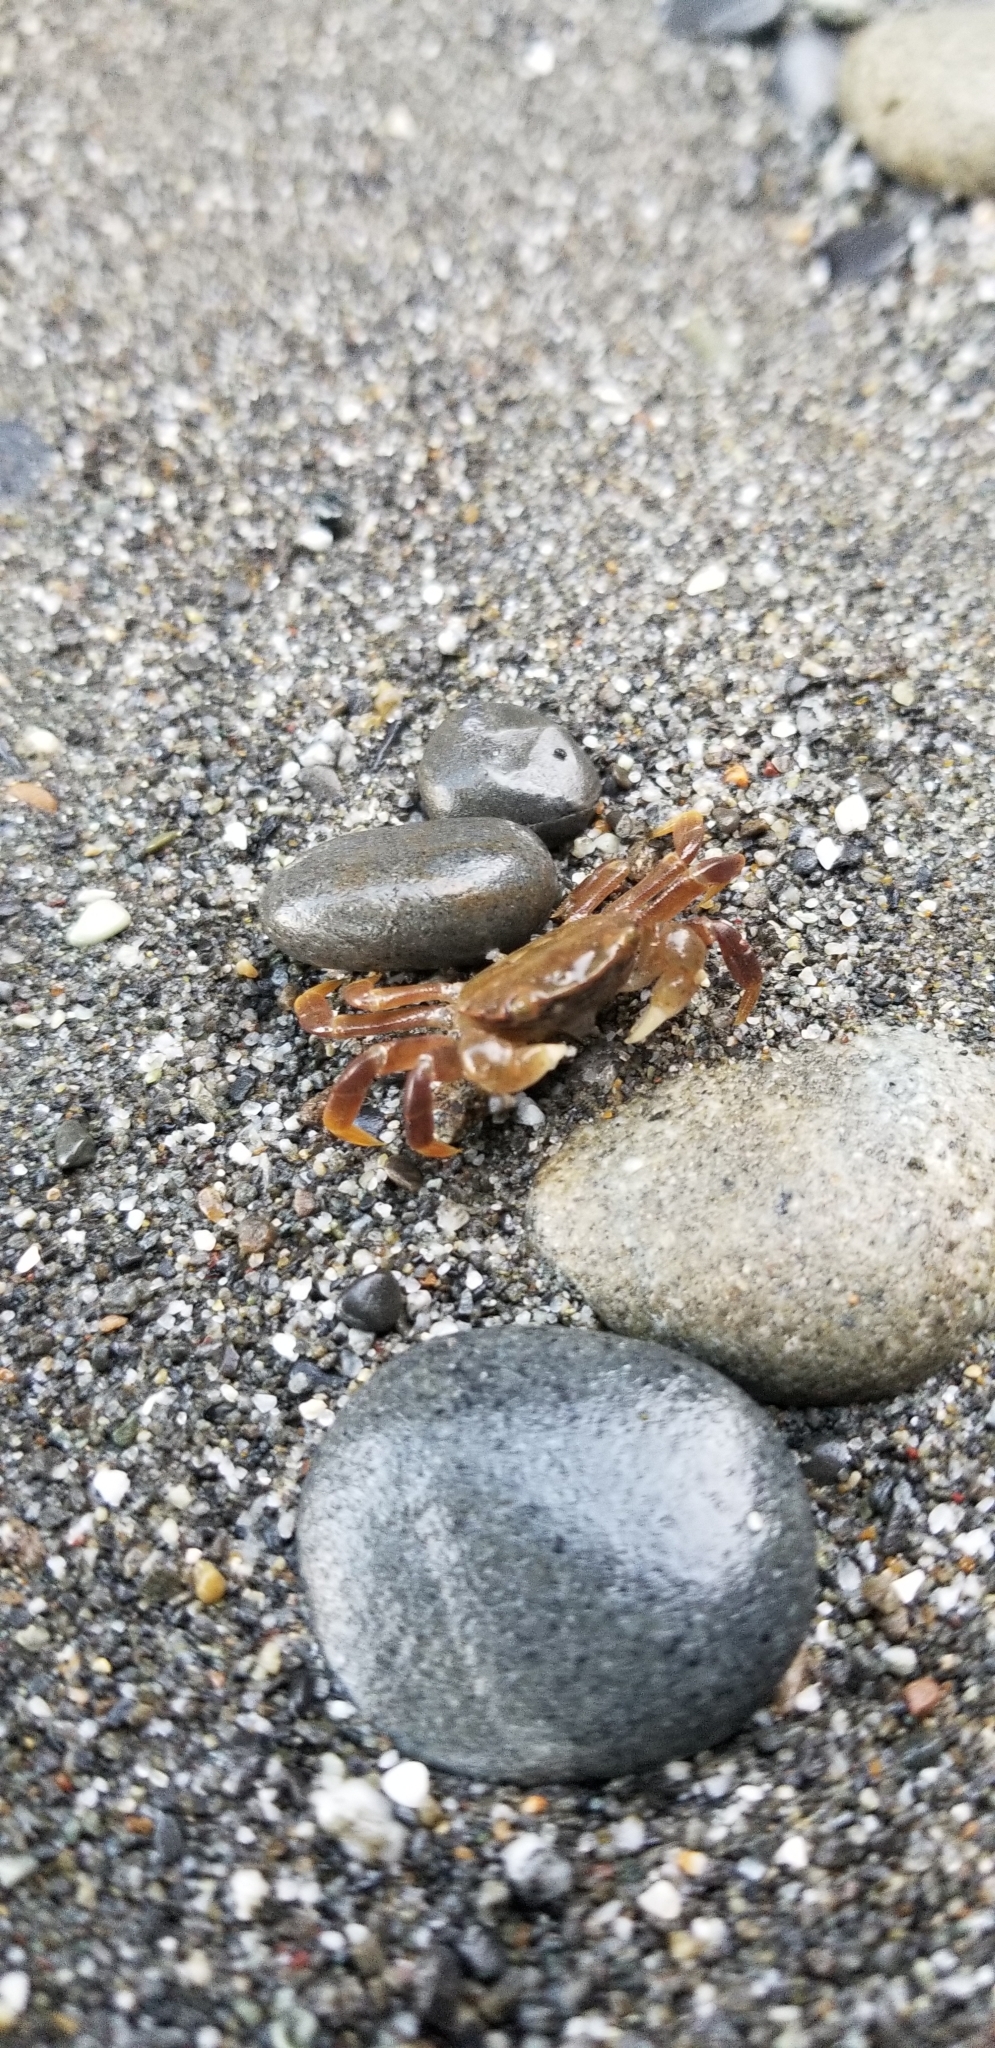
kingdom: Animalia
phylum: Arthropoda
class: Malacostraca
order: Decapoda
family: Varunidae
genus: Hemigrapsus
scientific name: Hemigrapsus nudus
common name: Purple shore crab
